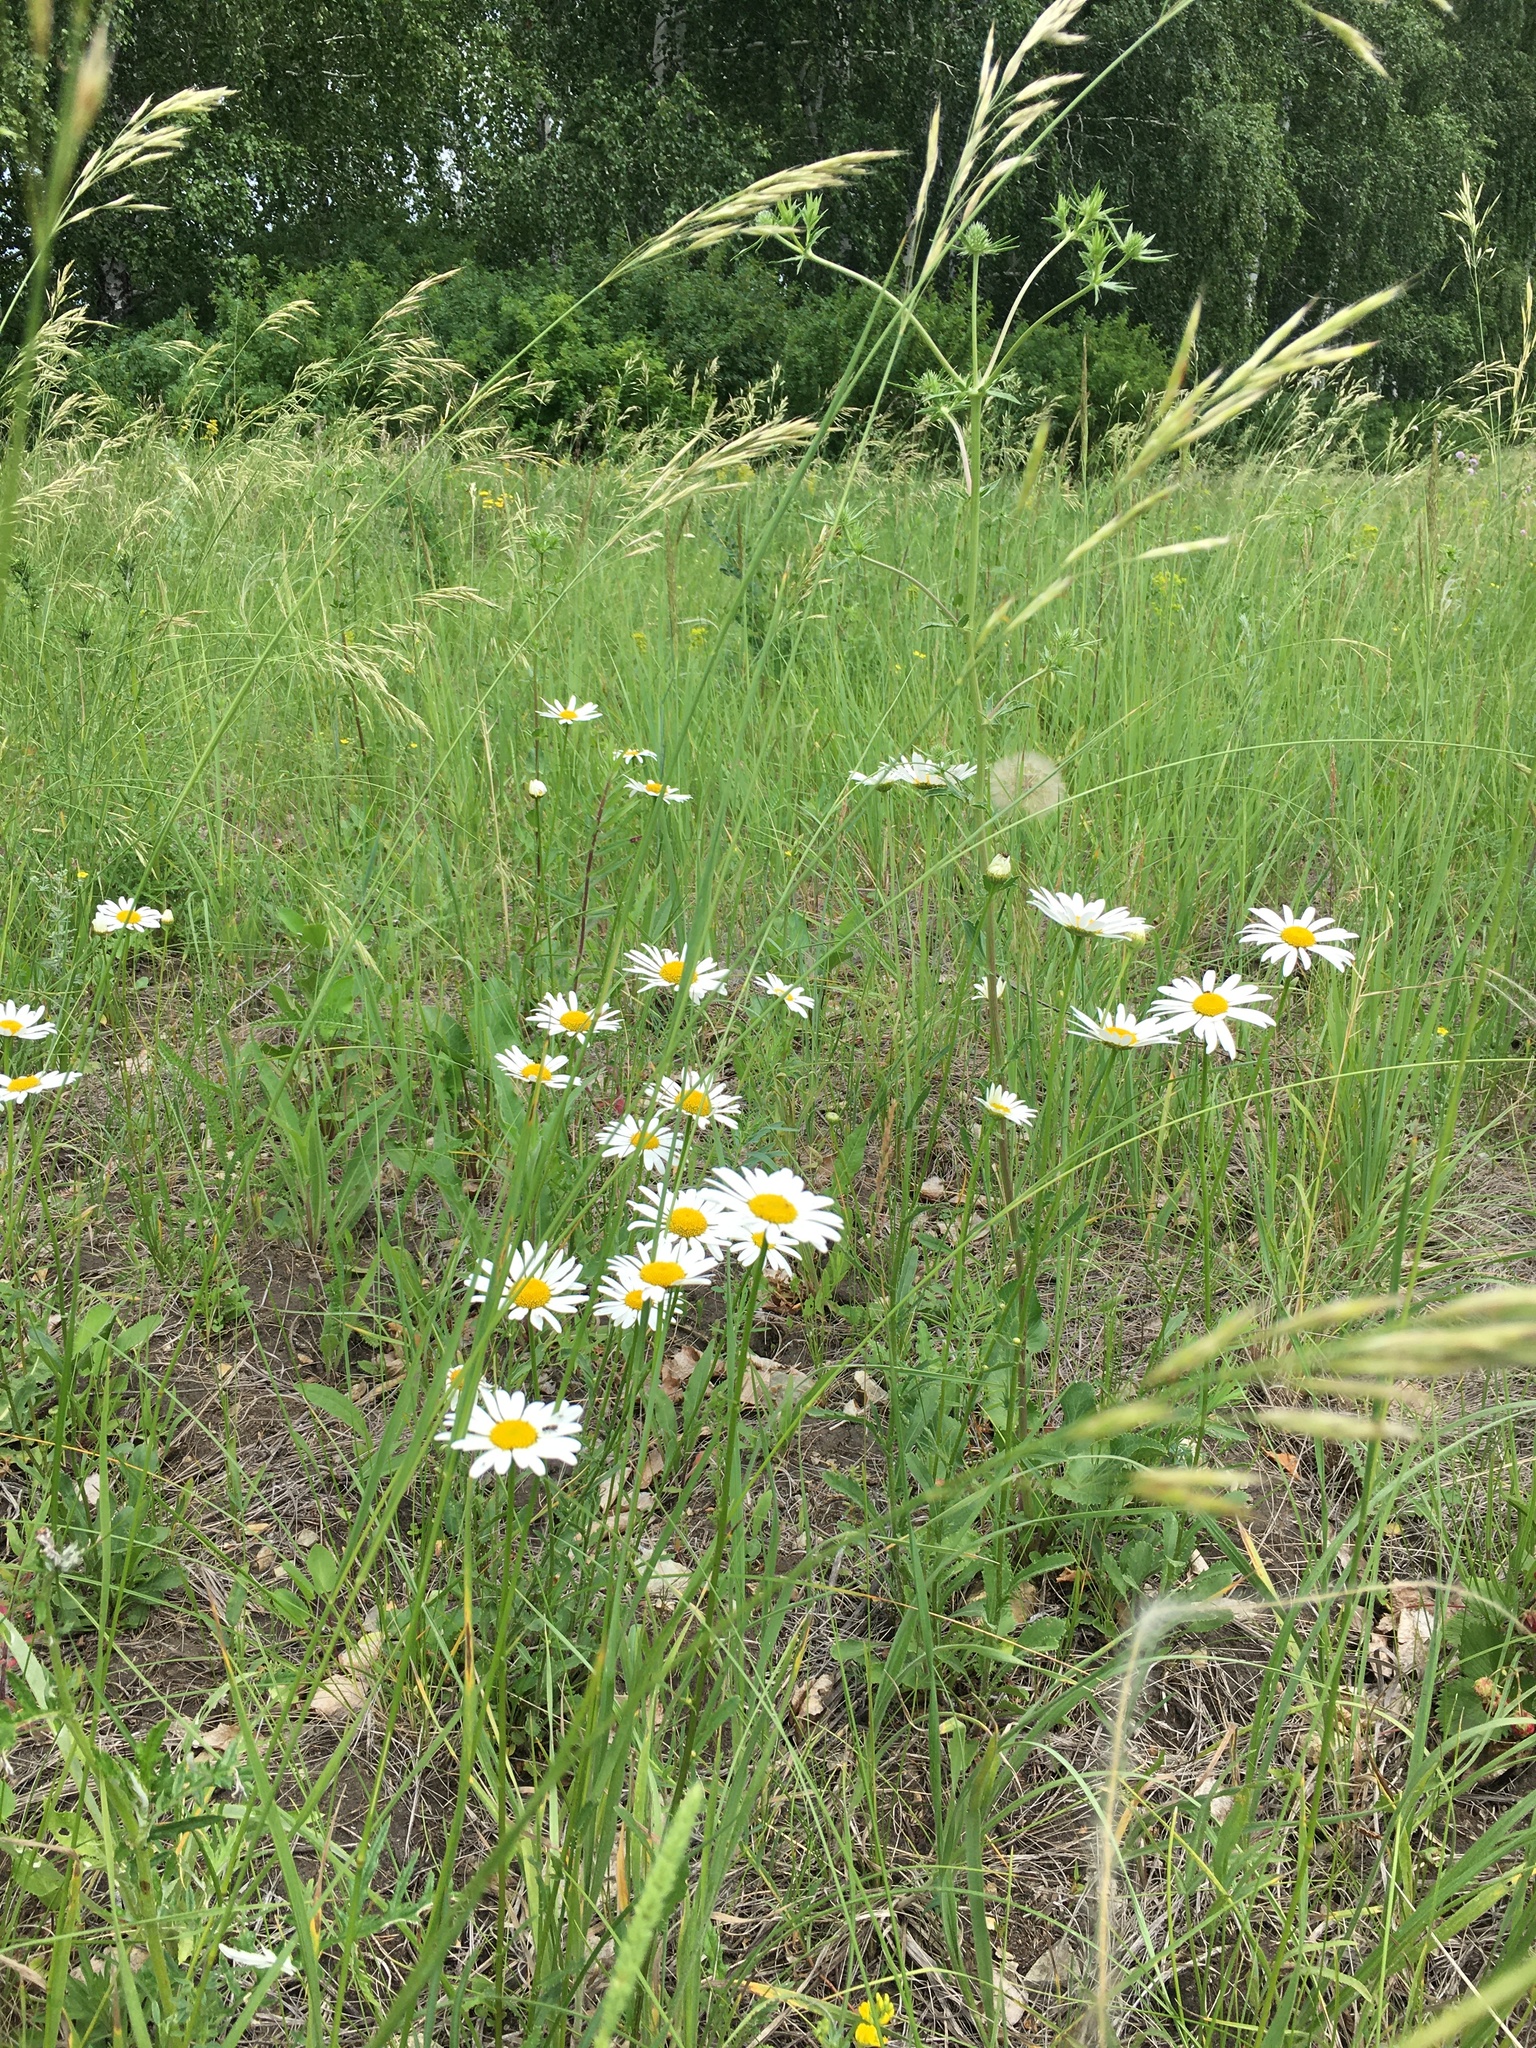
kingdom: Plantae
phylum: Tracheophyta
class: Magnoliopsida
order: Asterales
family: Asteraceae
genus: Leucanthemum
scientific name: Leucanthemum vulgare
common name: Oxeye daisy
